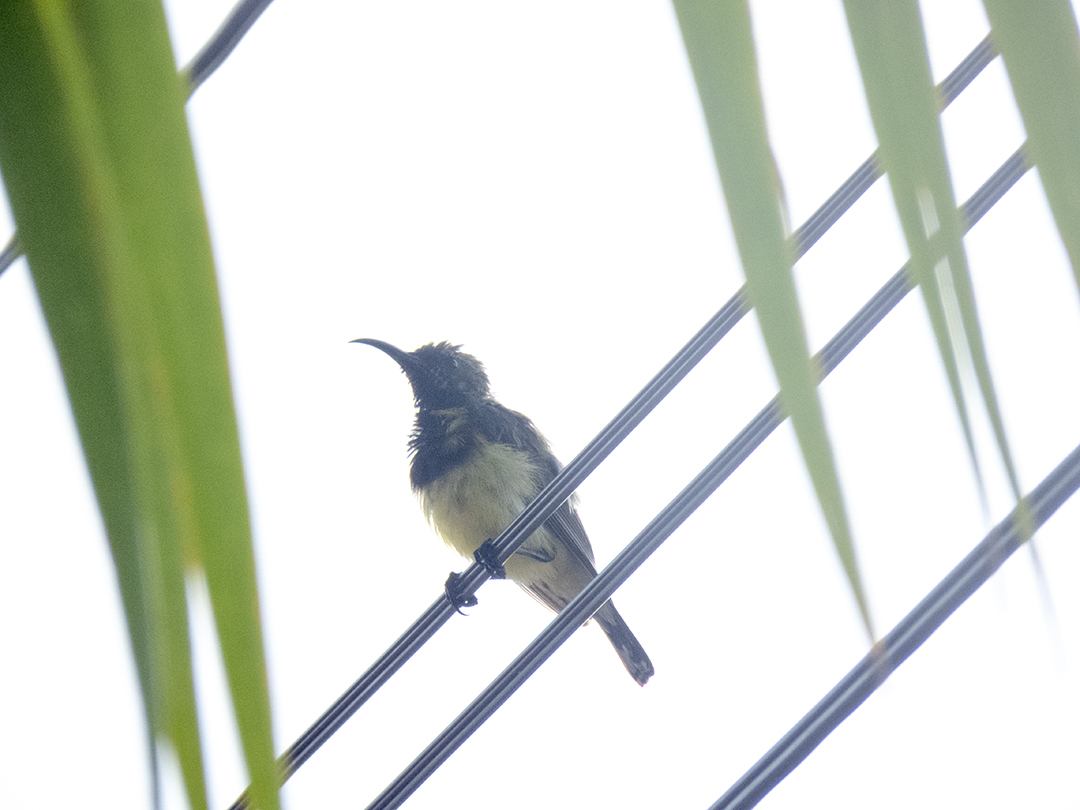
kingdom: Animalia
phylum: Chordata
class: Aves
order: Passeriformes
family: Nectariniidae
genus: Cinnyris
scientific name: Cinnyris
